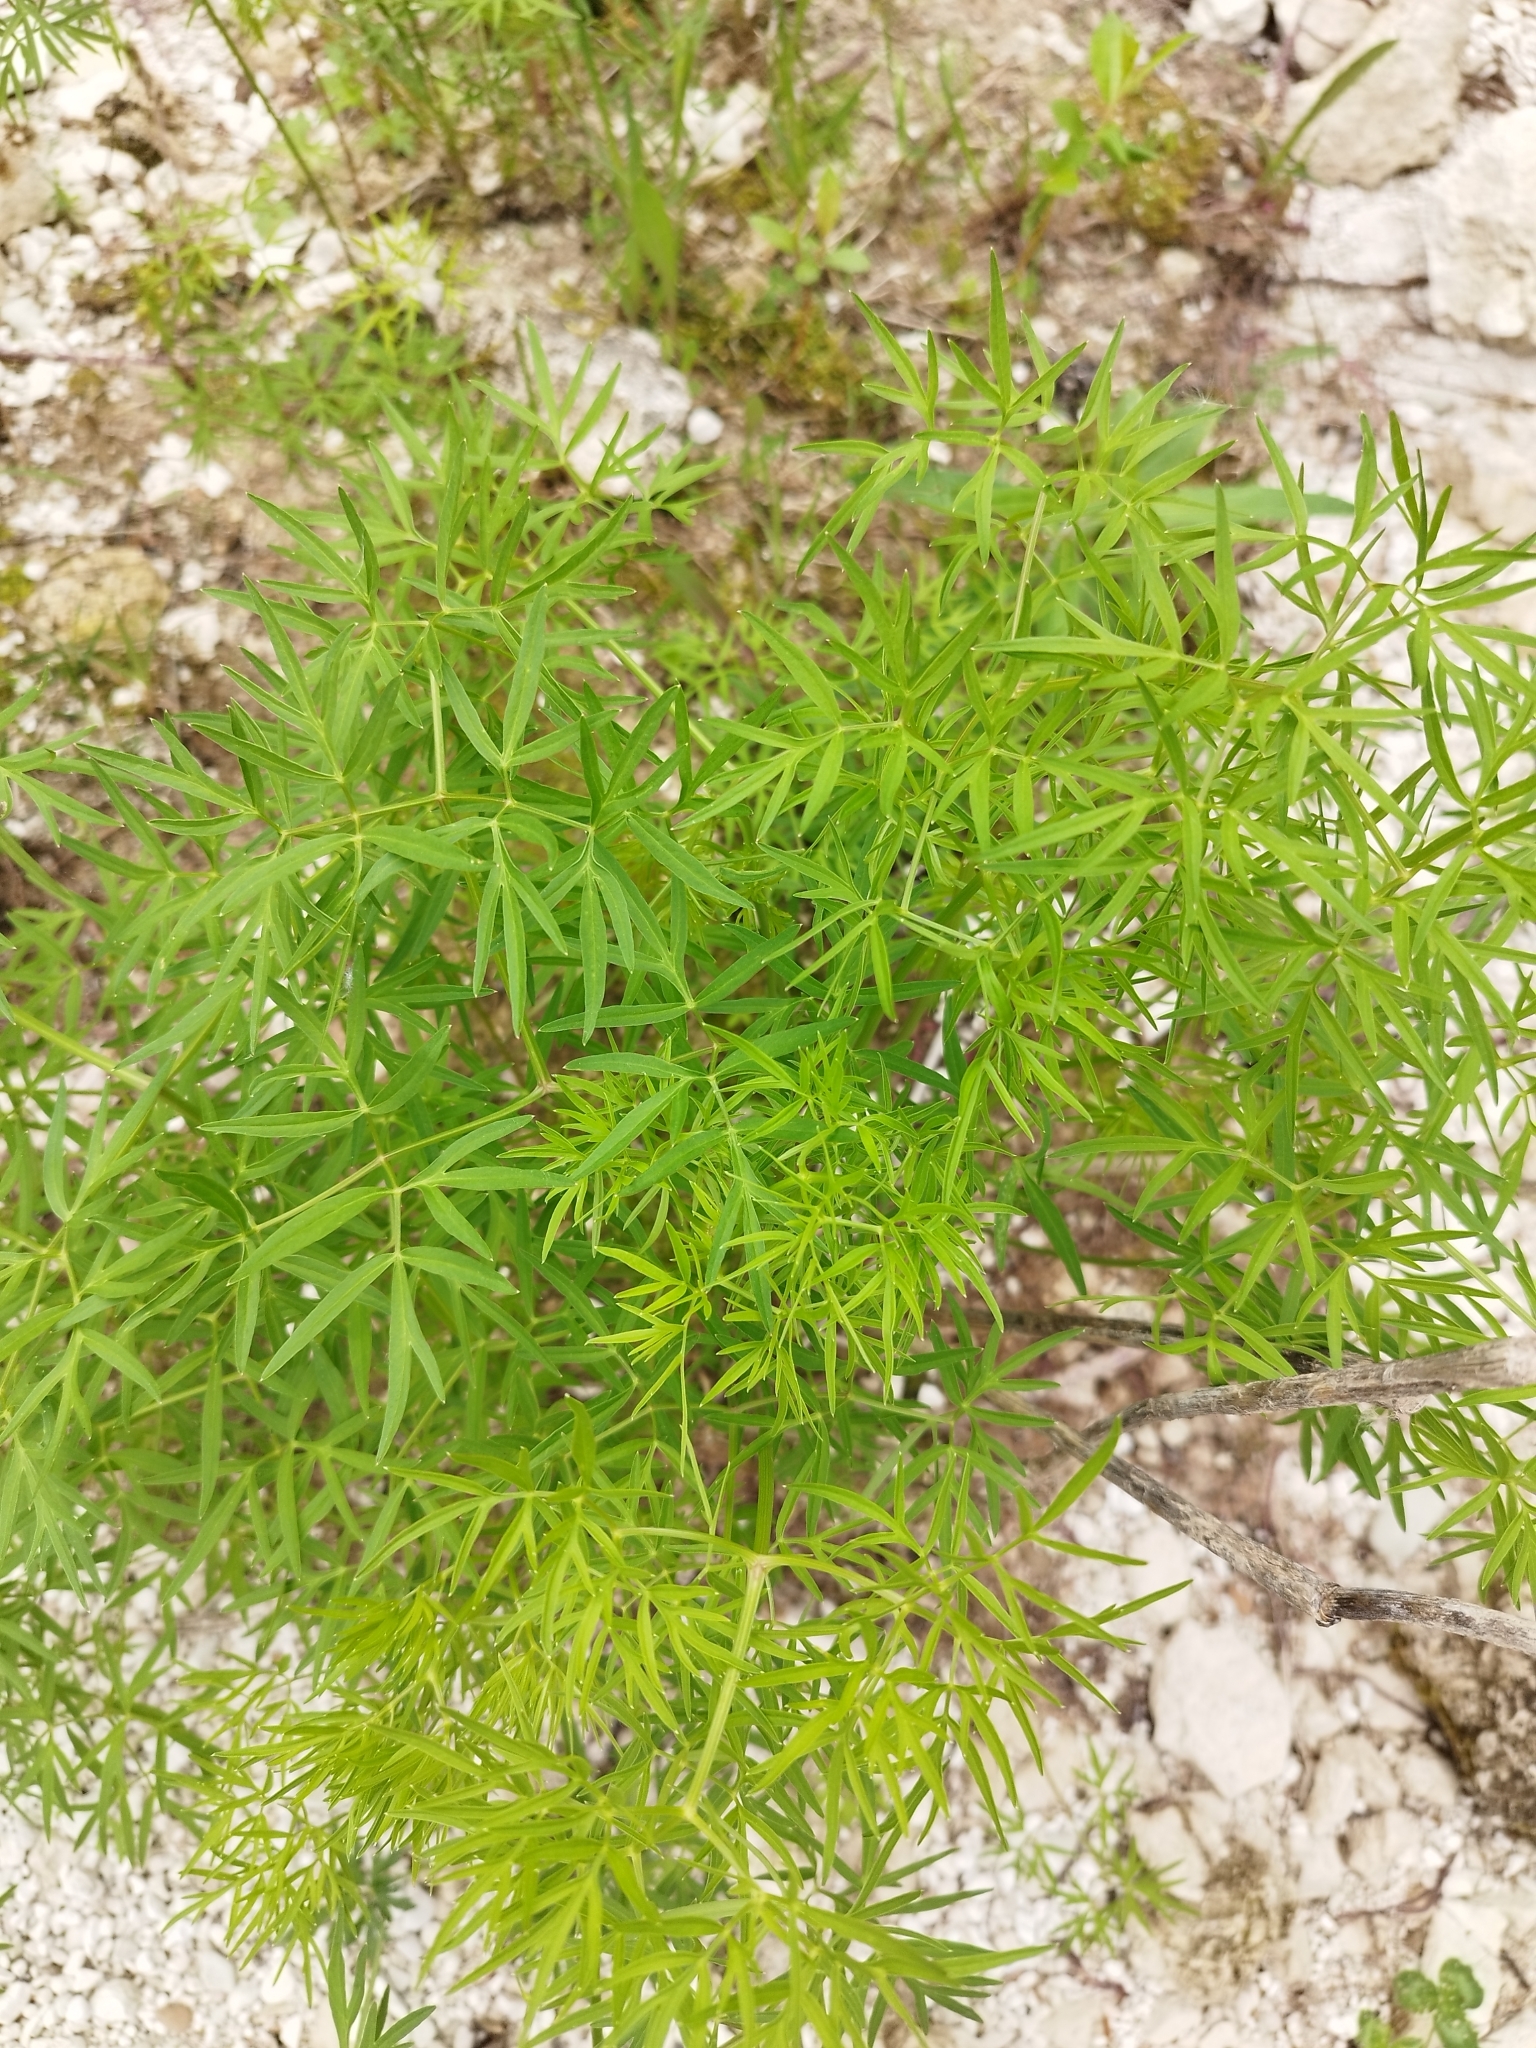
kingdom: Plantae
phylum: Tracheophyta
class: Magnoliopsida
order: Apiales
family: Apiaceae
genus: Cenolophium
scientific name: Cenolophium fischeri
